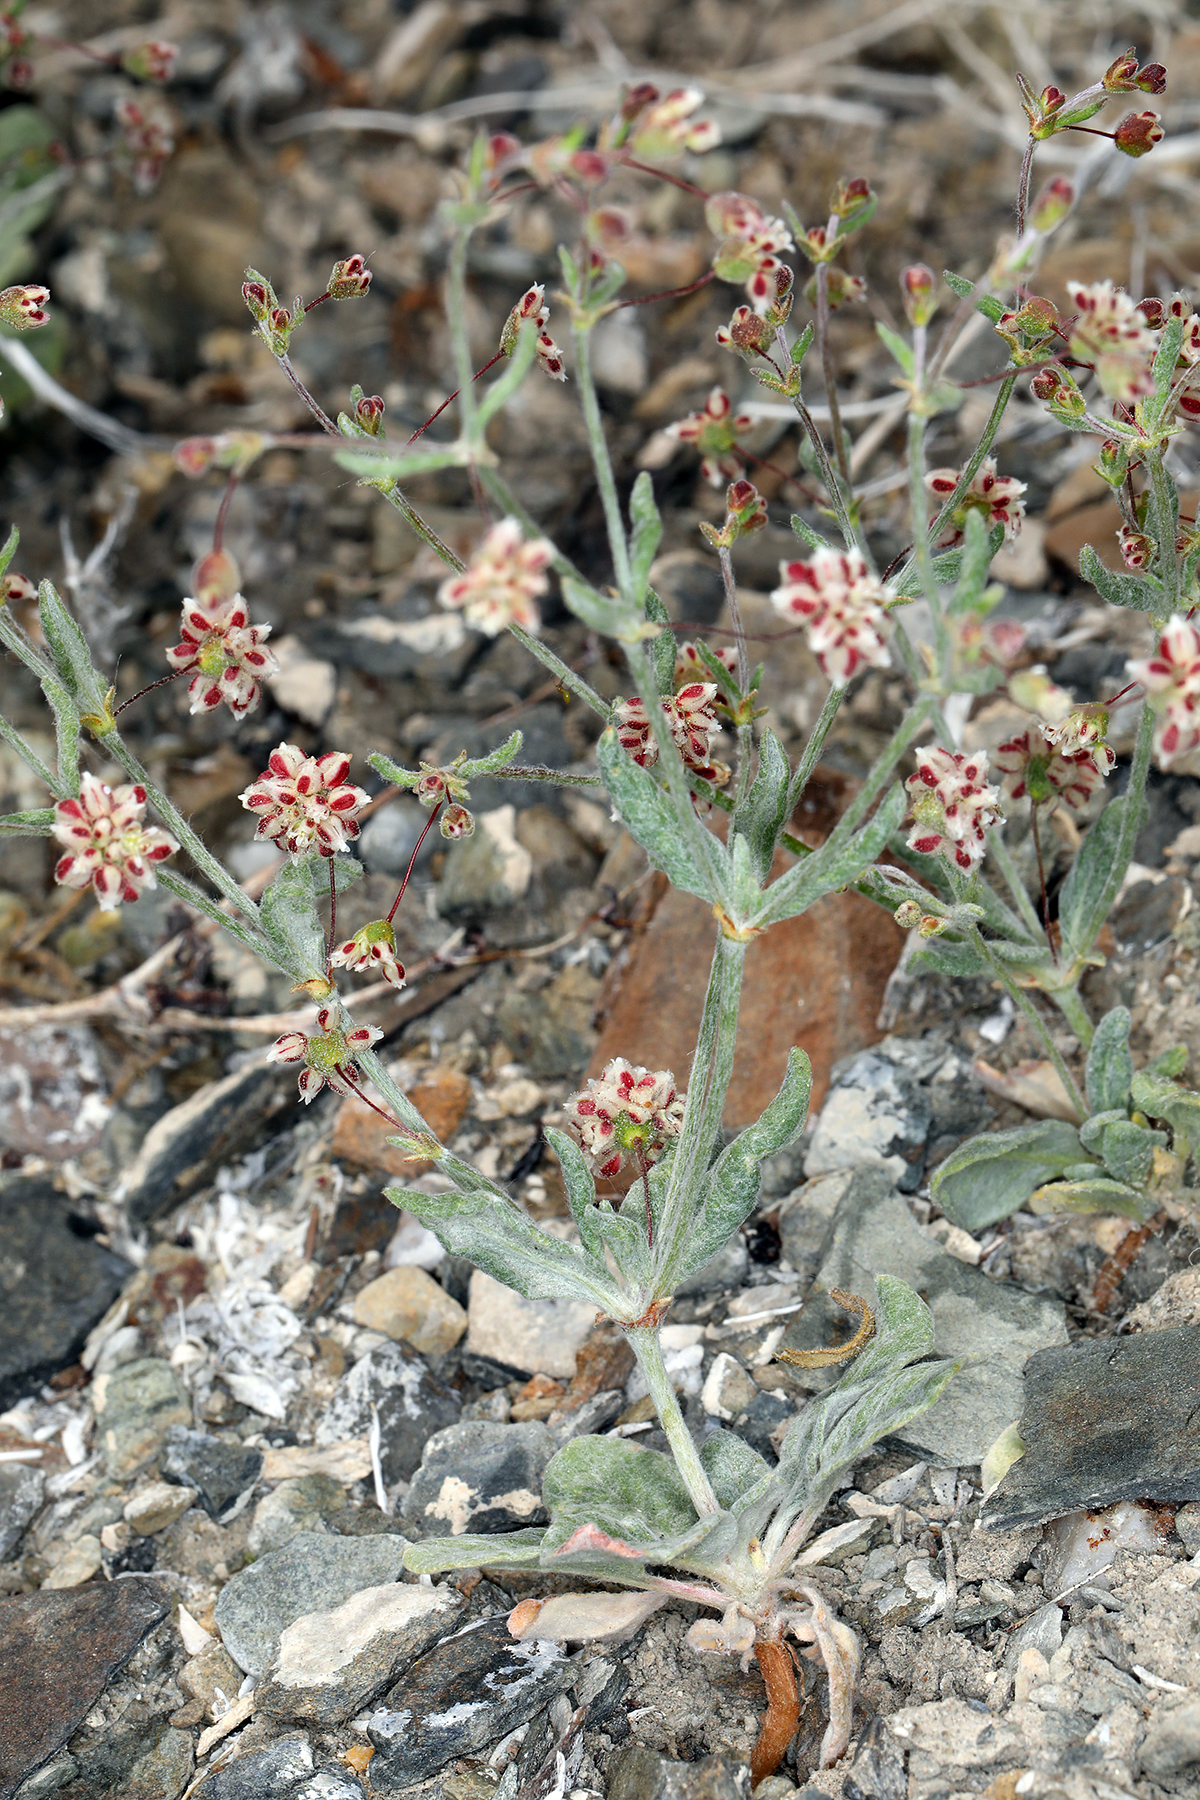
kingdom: Plantae
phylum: Tracheophyta
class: Magnoliopsida
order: Caryophyllales
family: Polygonaceae
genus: Eriogonum
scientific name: Eriogonum maculatum
